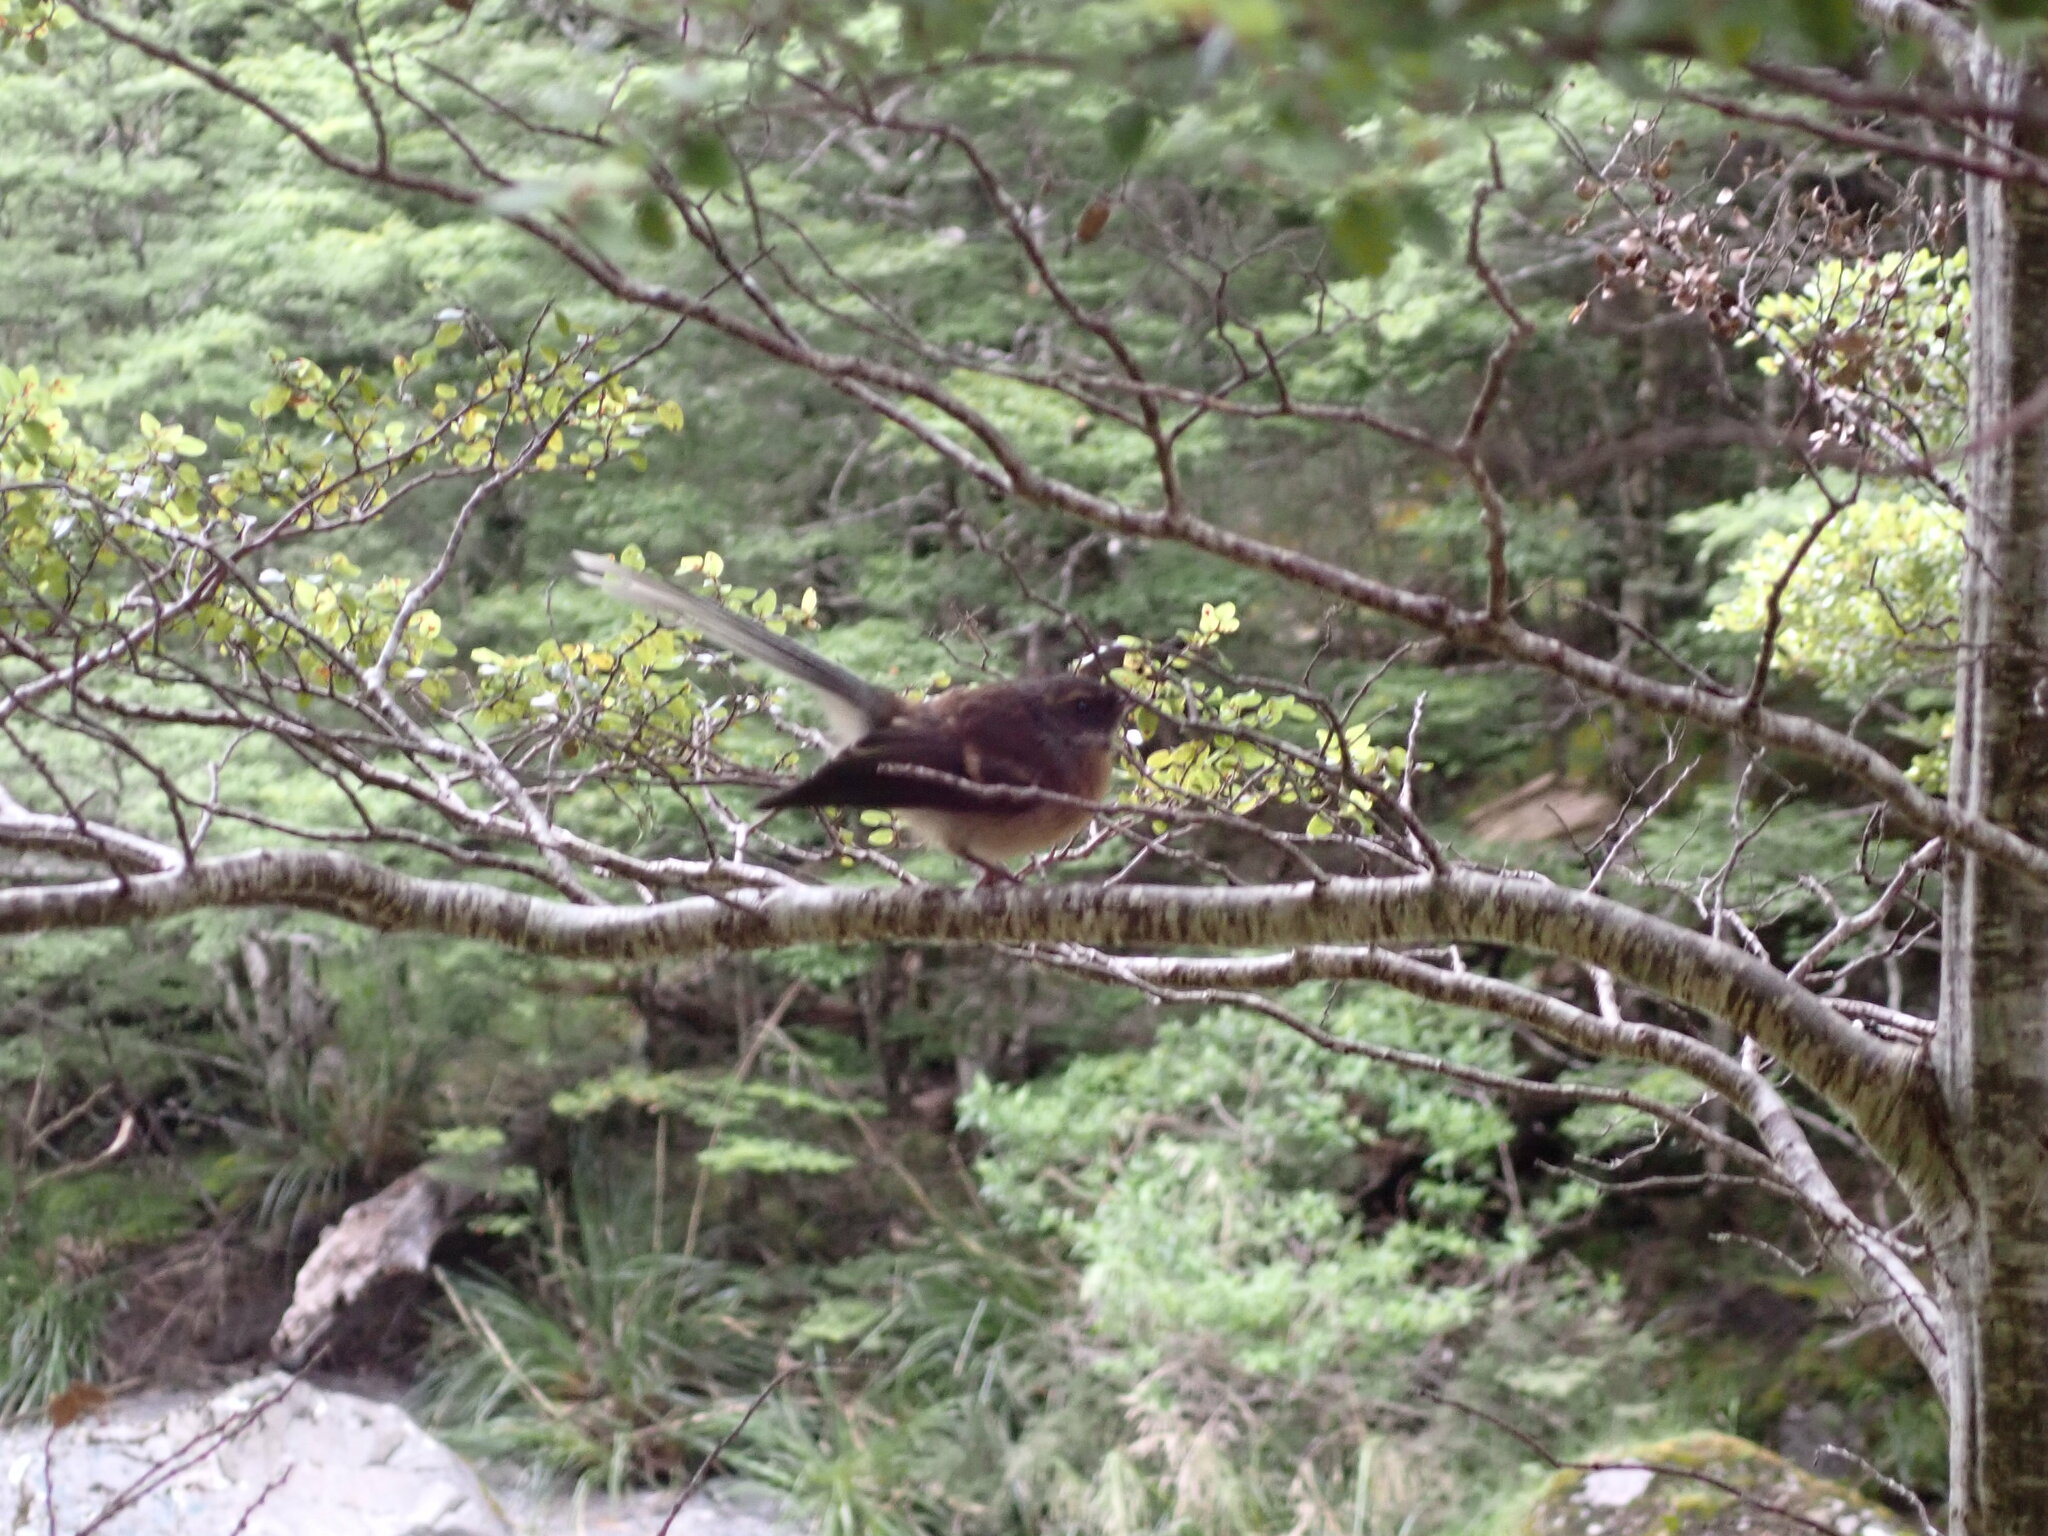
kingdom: Animalia
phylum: Chordata
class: Aves
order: Passeriformes
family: Rhipiduridae
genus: Rhipidura
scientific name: Rhipidura fuliginosa
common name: New zealand fantail
